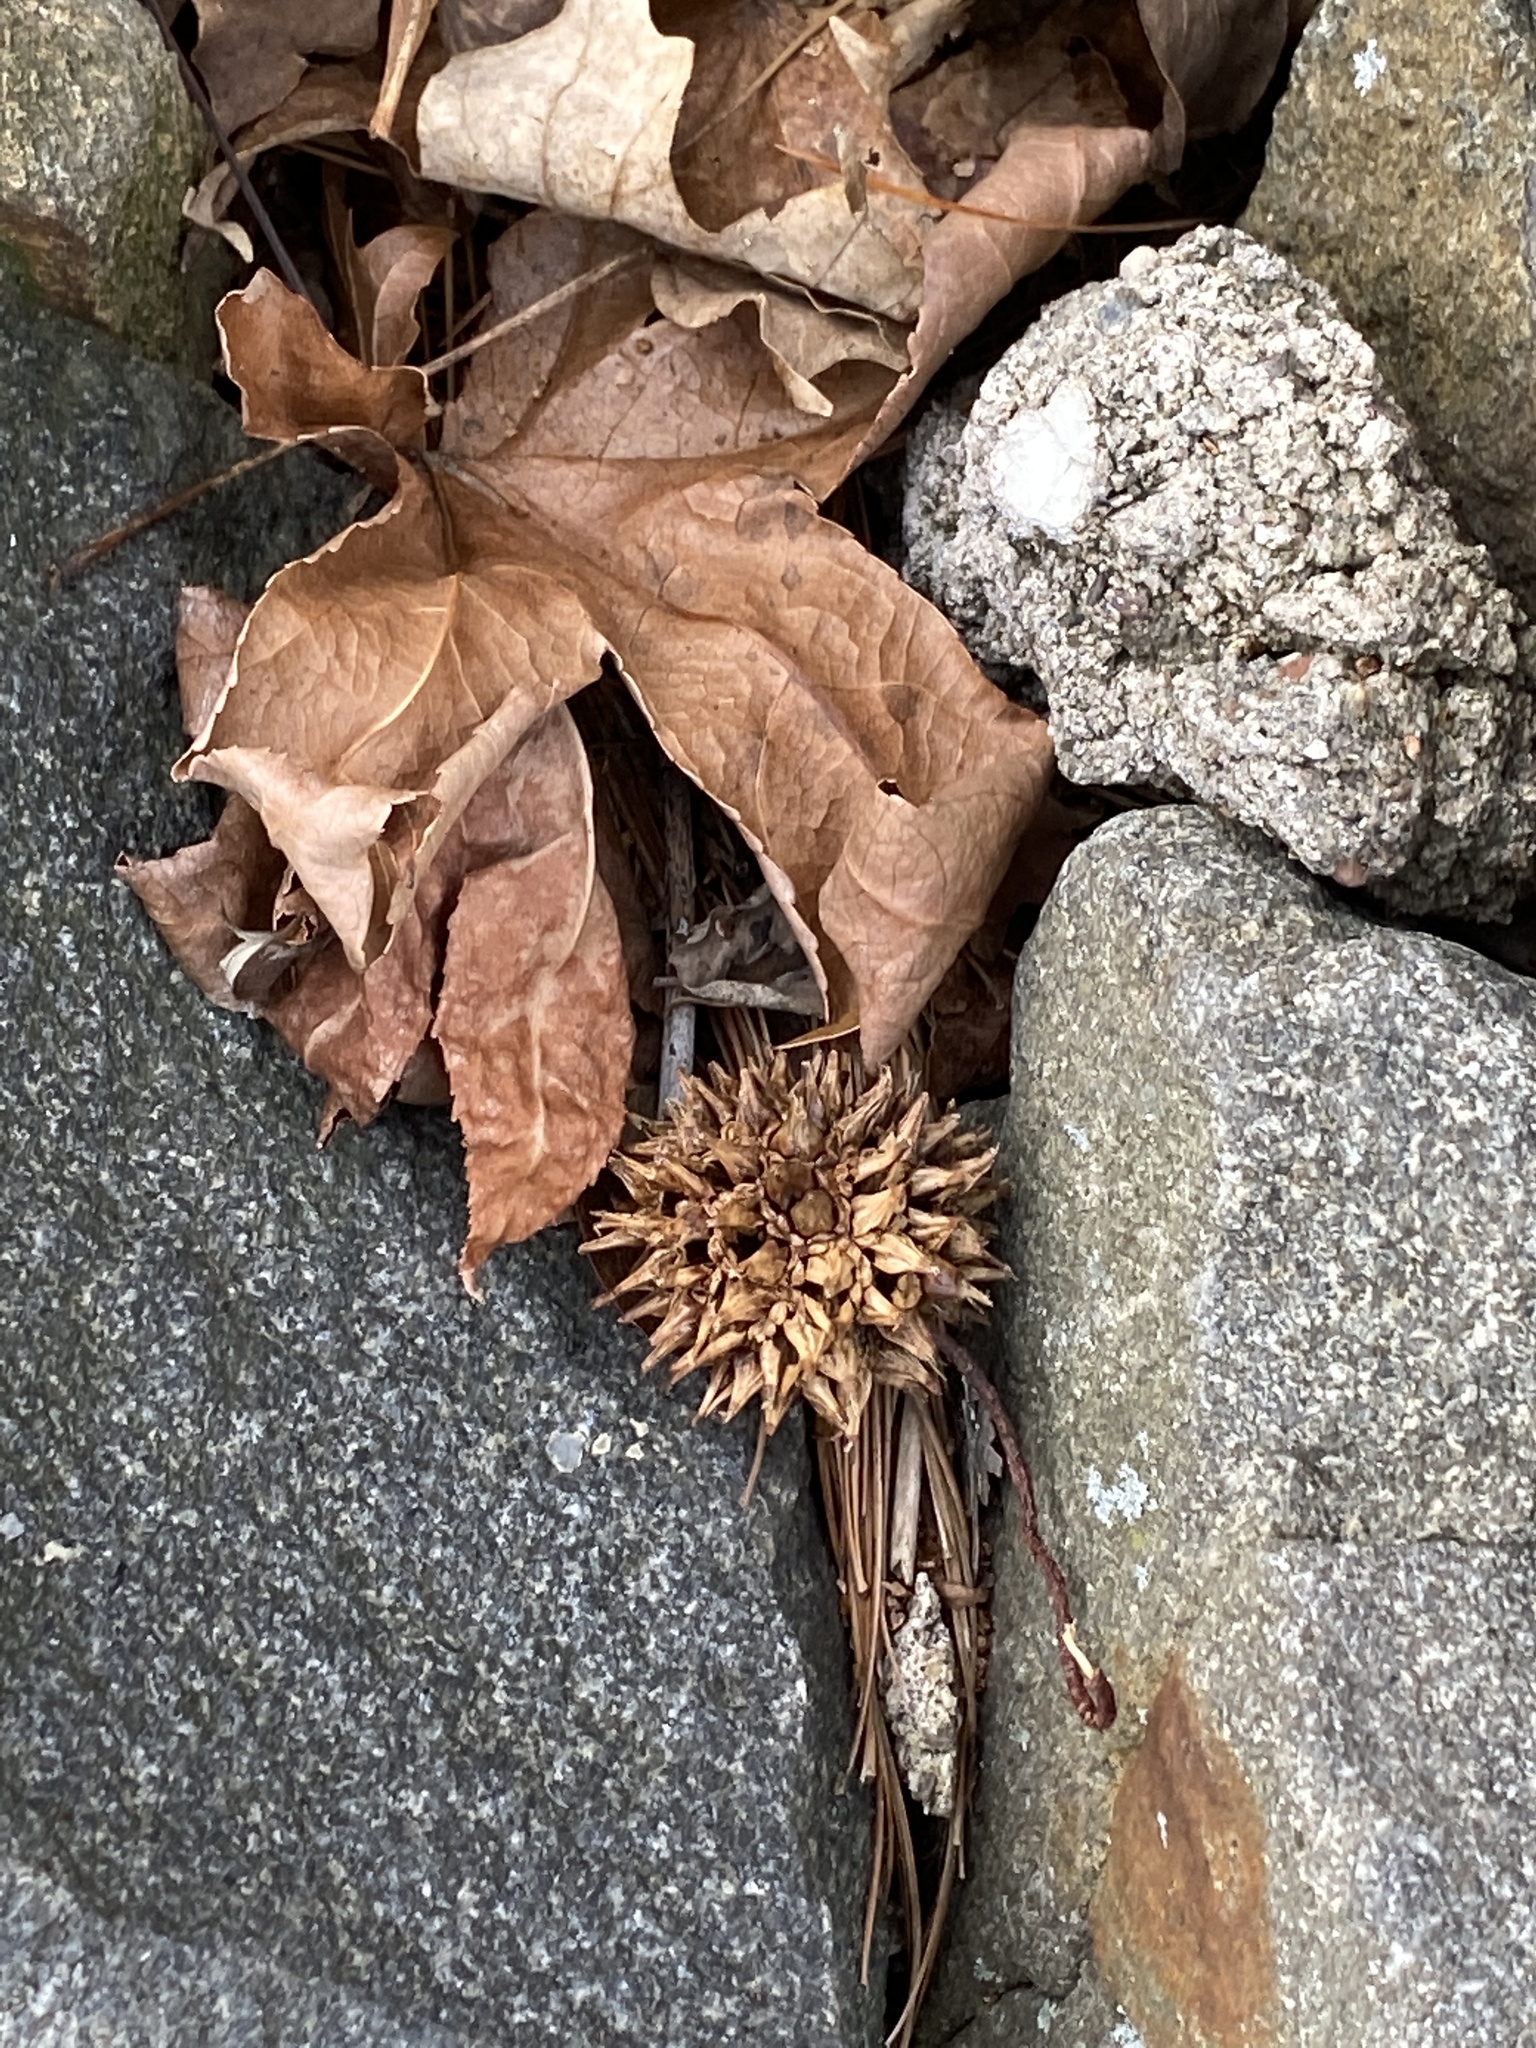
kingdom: Plantae
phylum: Tracheophyta
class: Magnoliopsida
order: Saxifragales
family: Altingiaceae
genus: Liquidambar
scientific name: Liquidambar styraciflua
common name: Sweet gum
